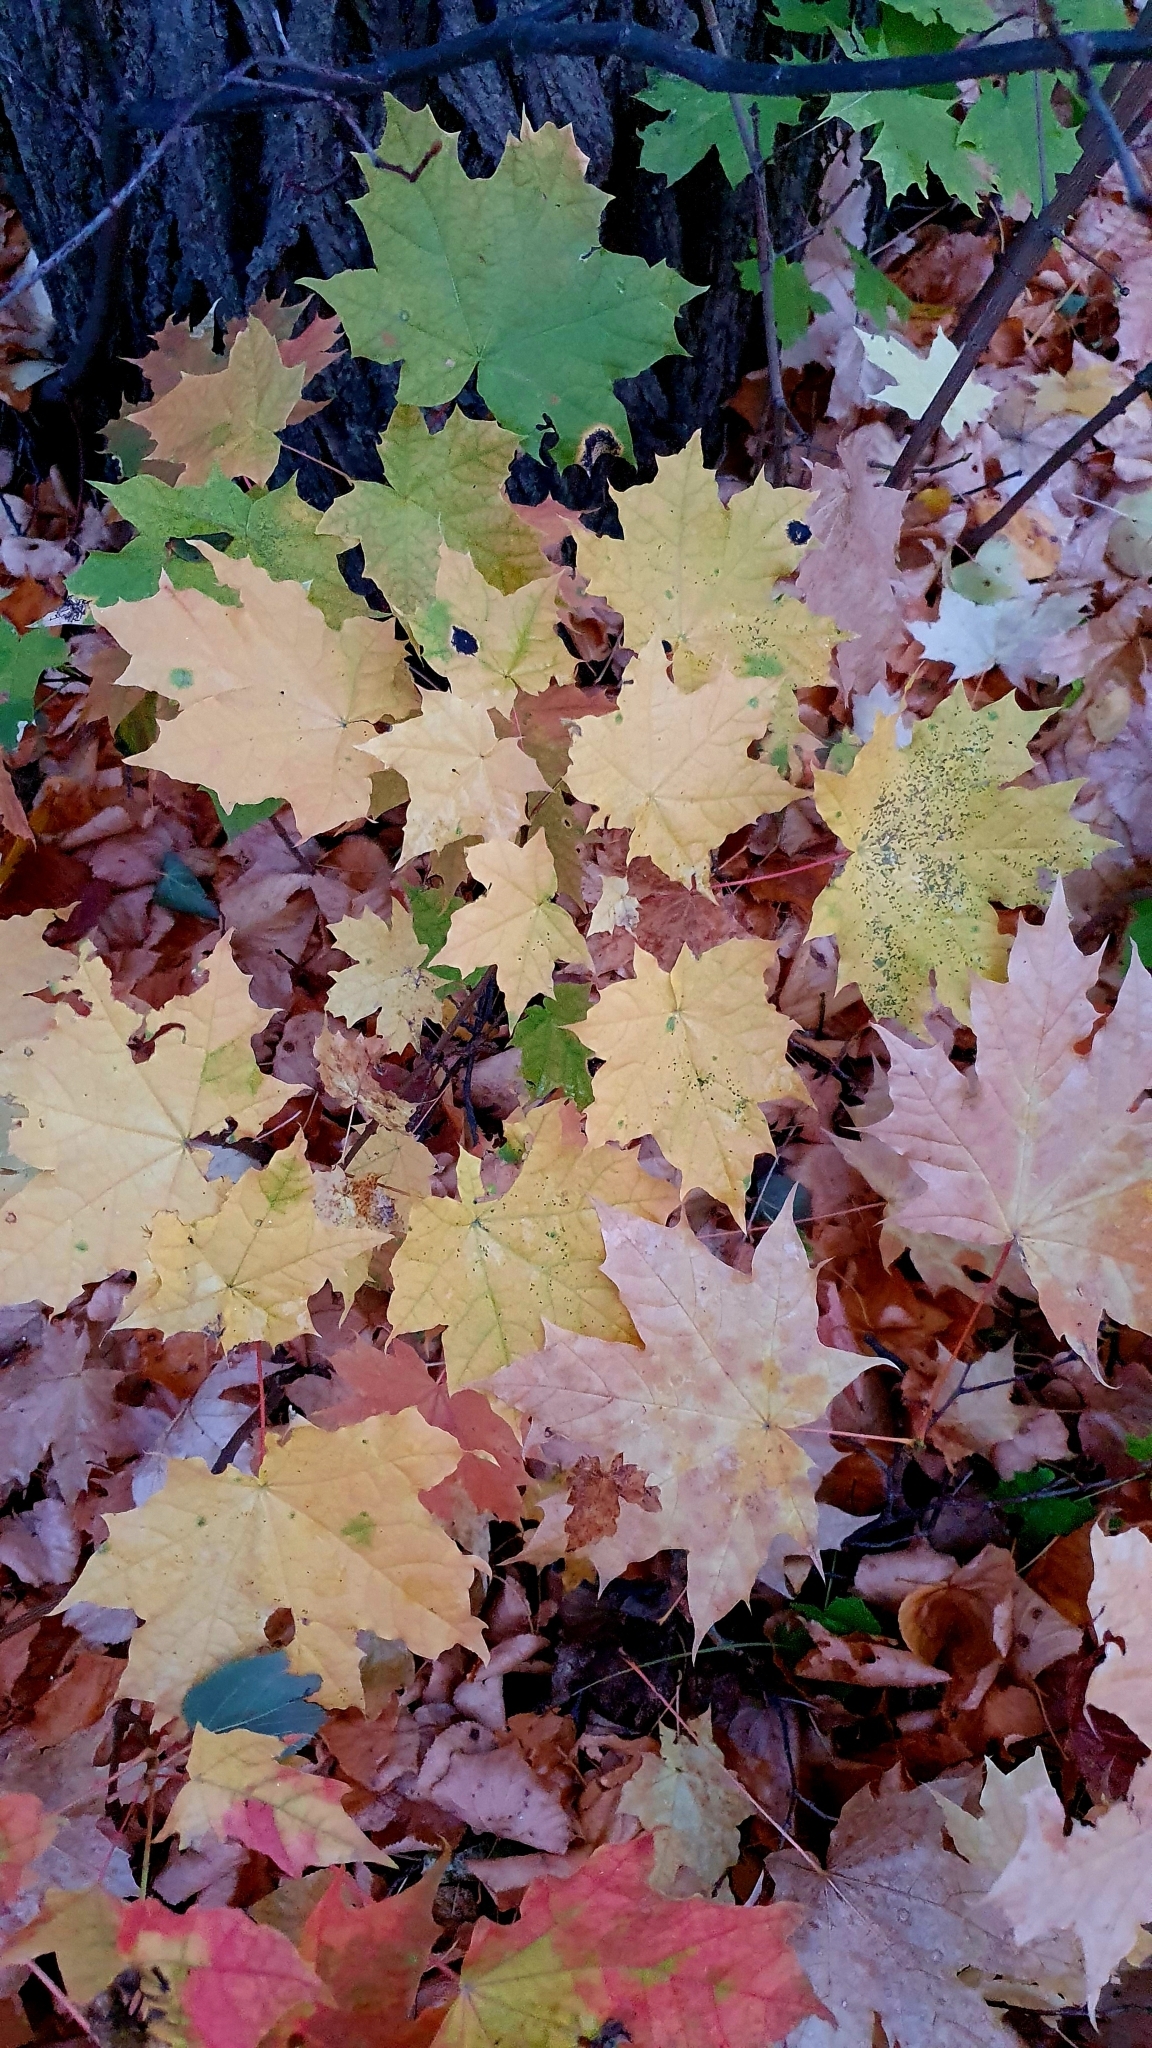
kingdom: Plantae
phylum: Tracheophyta
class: Magnoliopsida
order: Sapindales
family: Sapindaceae
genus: Acer
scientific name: Acer platanoides
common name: Norway maple
